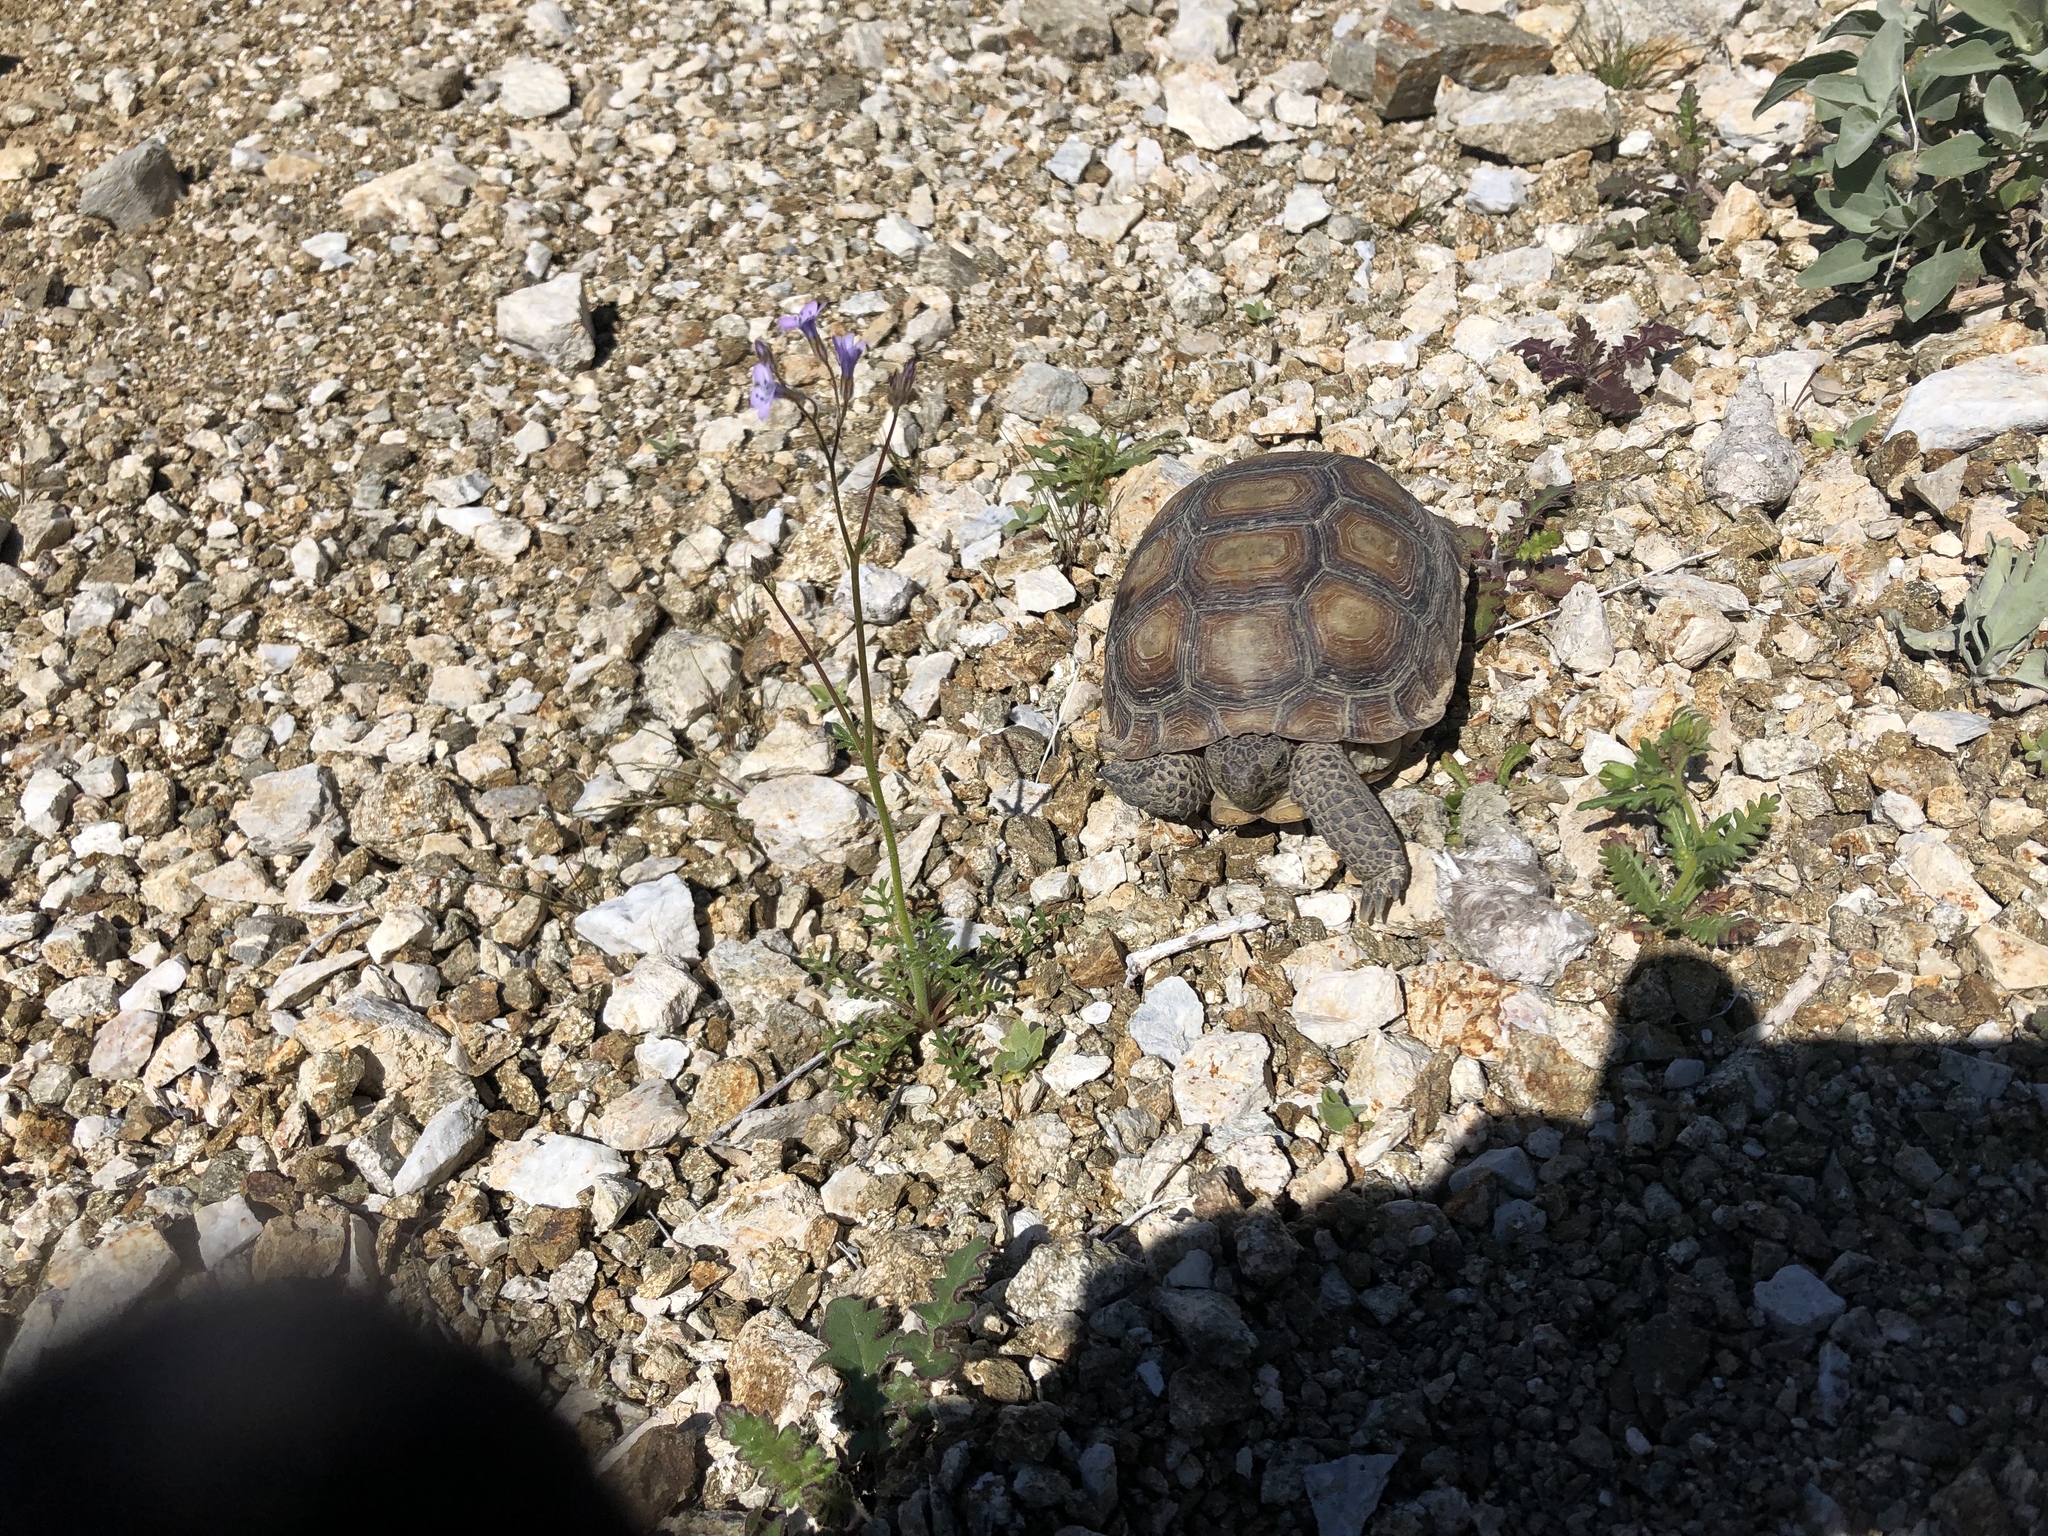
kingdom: Animalia
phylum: Chordata
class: Testudines
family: Testudinidae
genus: Gopherus
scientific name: Gopherus agassizii
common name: Mojave desert tortoise
